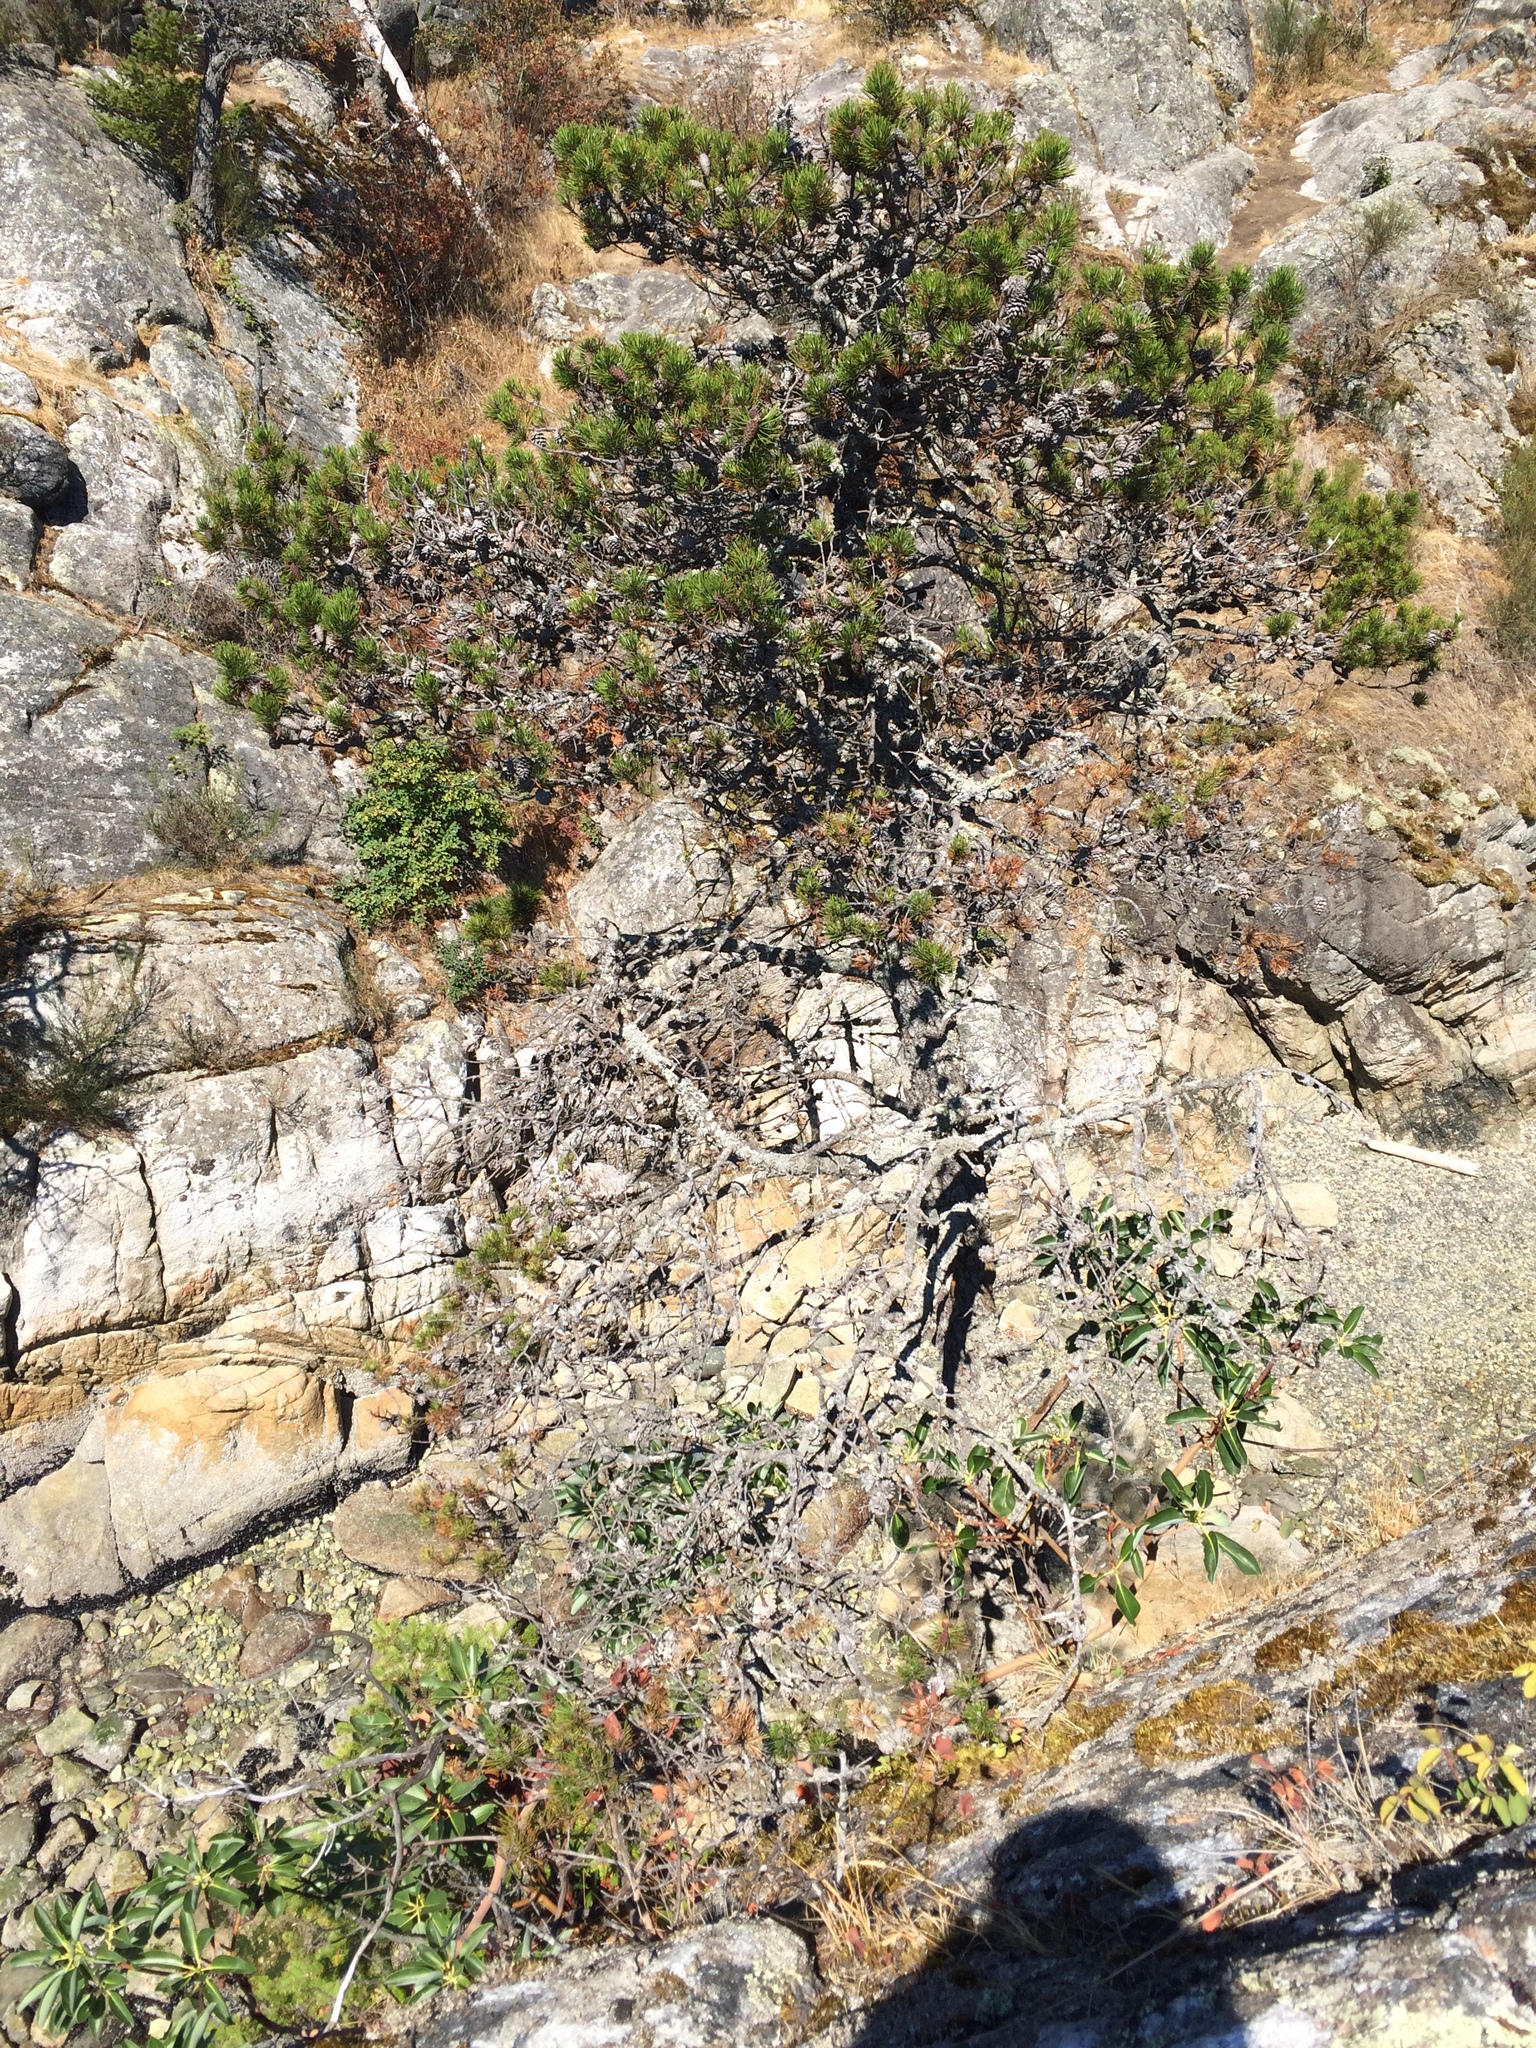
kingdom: Plantae
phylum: Tracheophyta
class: Pinopsida
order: Pinales
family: Pinaceae
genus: Pinus
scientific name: Pinus contorta
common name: Lodgepole pine
